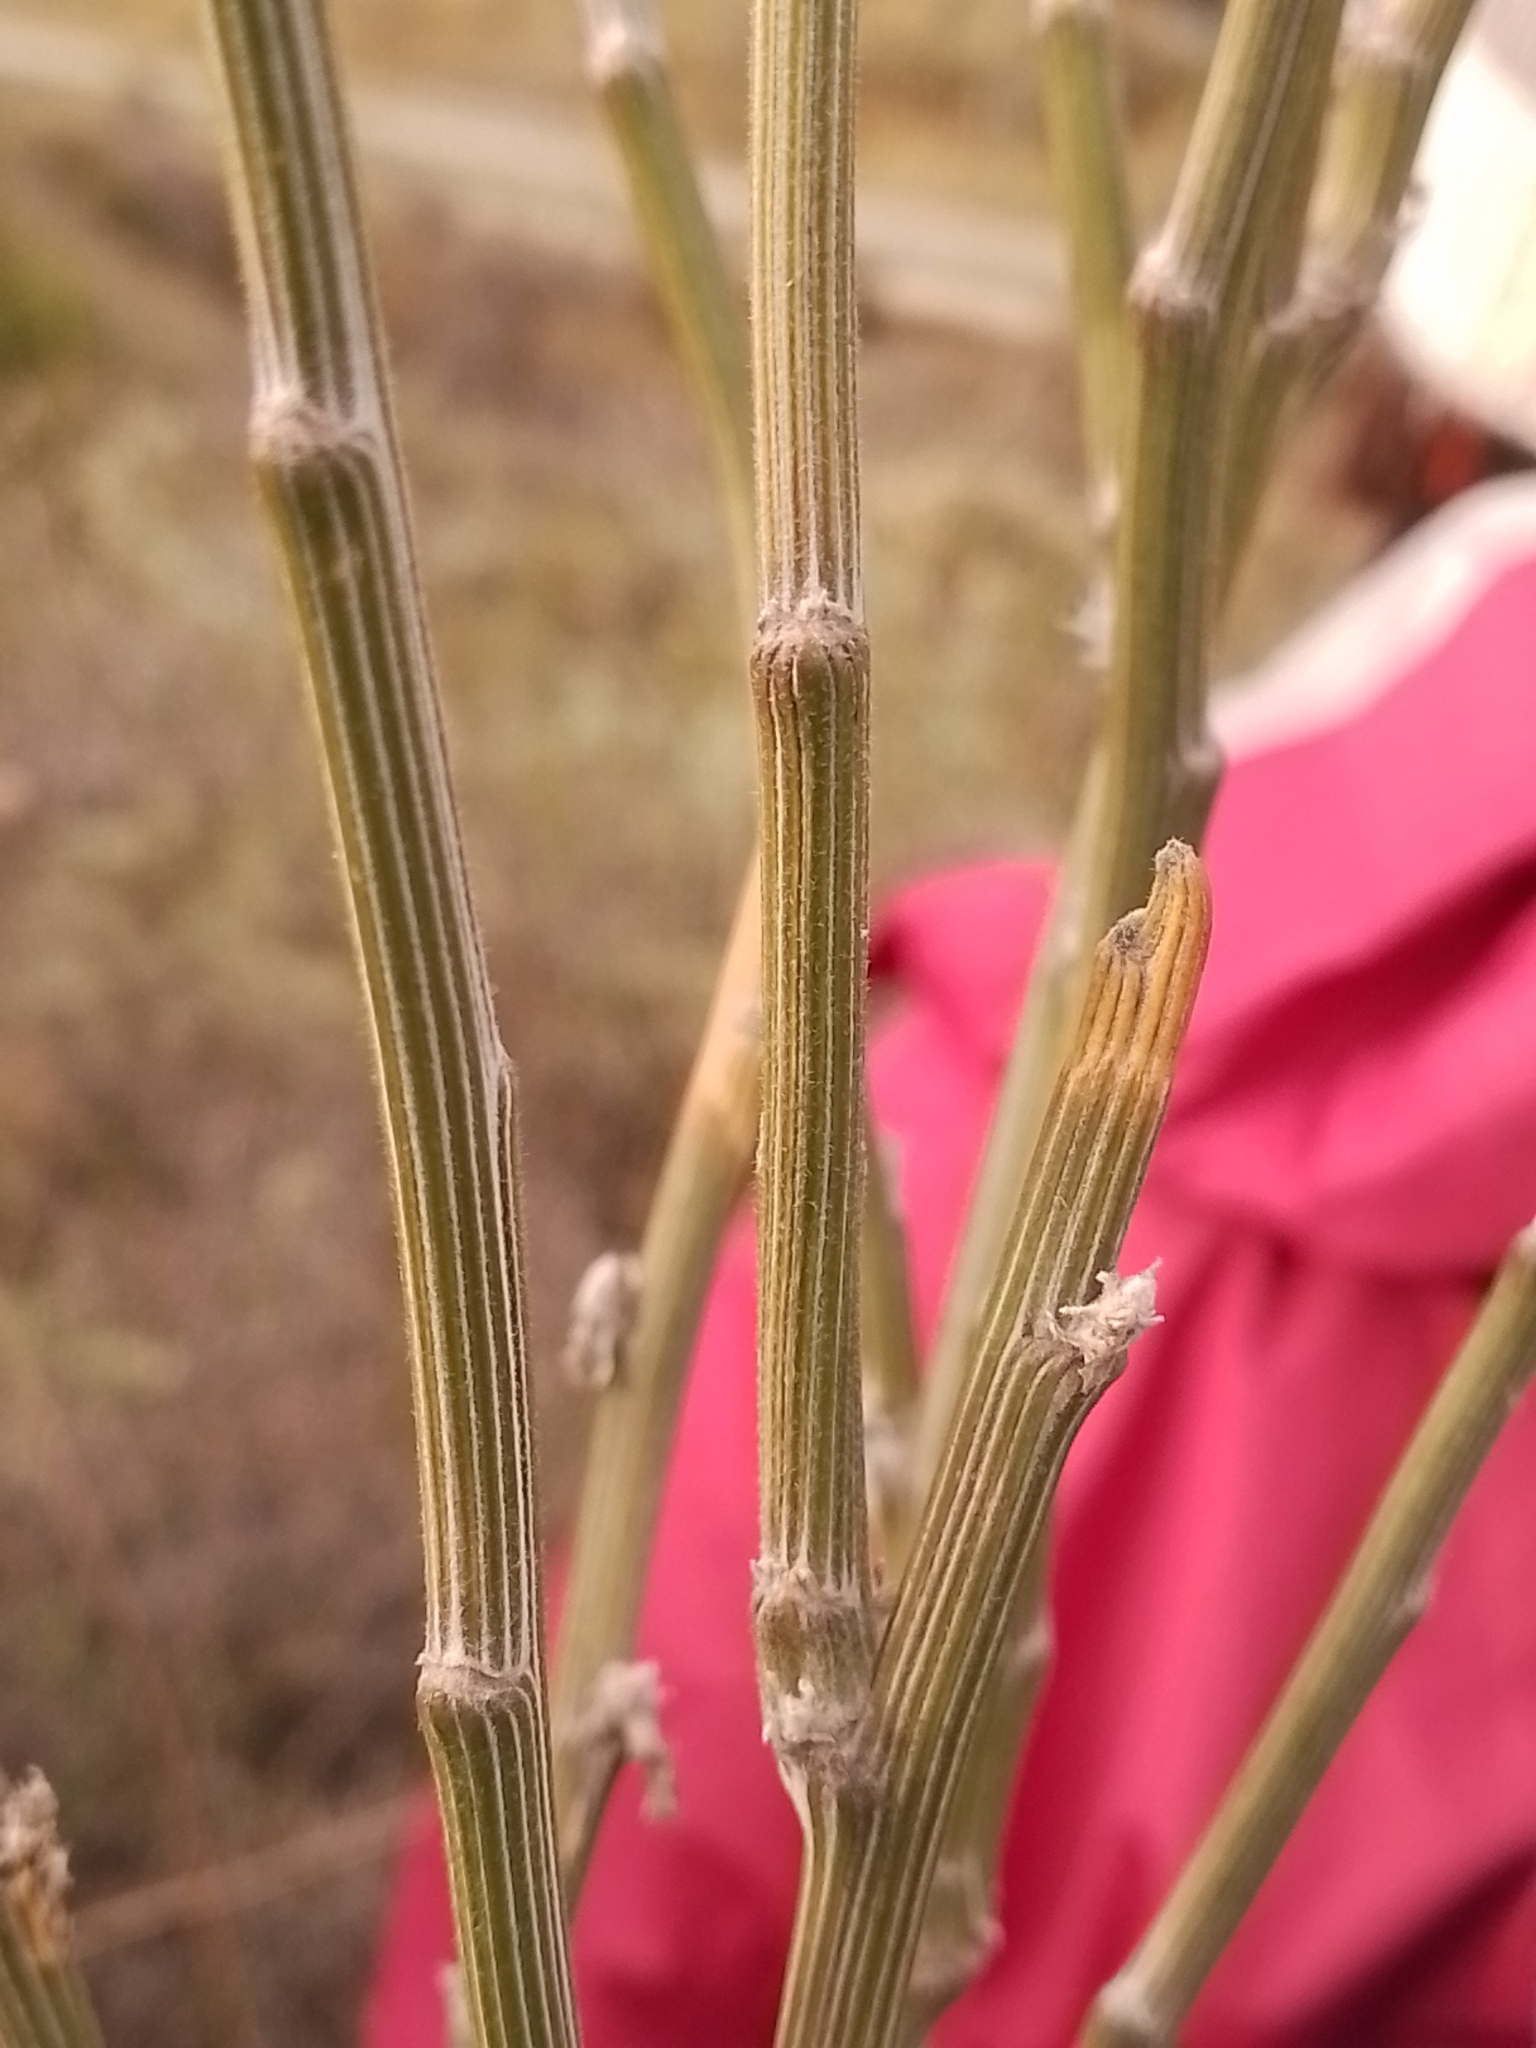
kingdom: Plantae
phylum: Tracheophyta
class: Magnoliopsida
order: Fabales
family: Fabaceae
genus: Carmichaelia
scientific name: Carmichaelia crassicaulis
